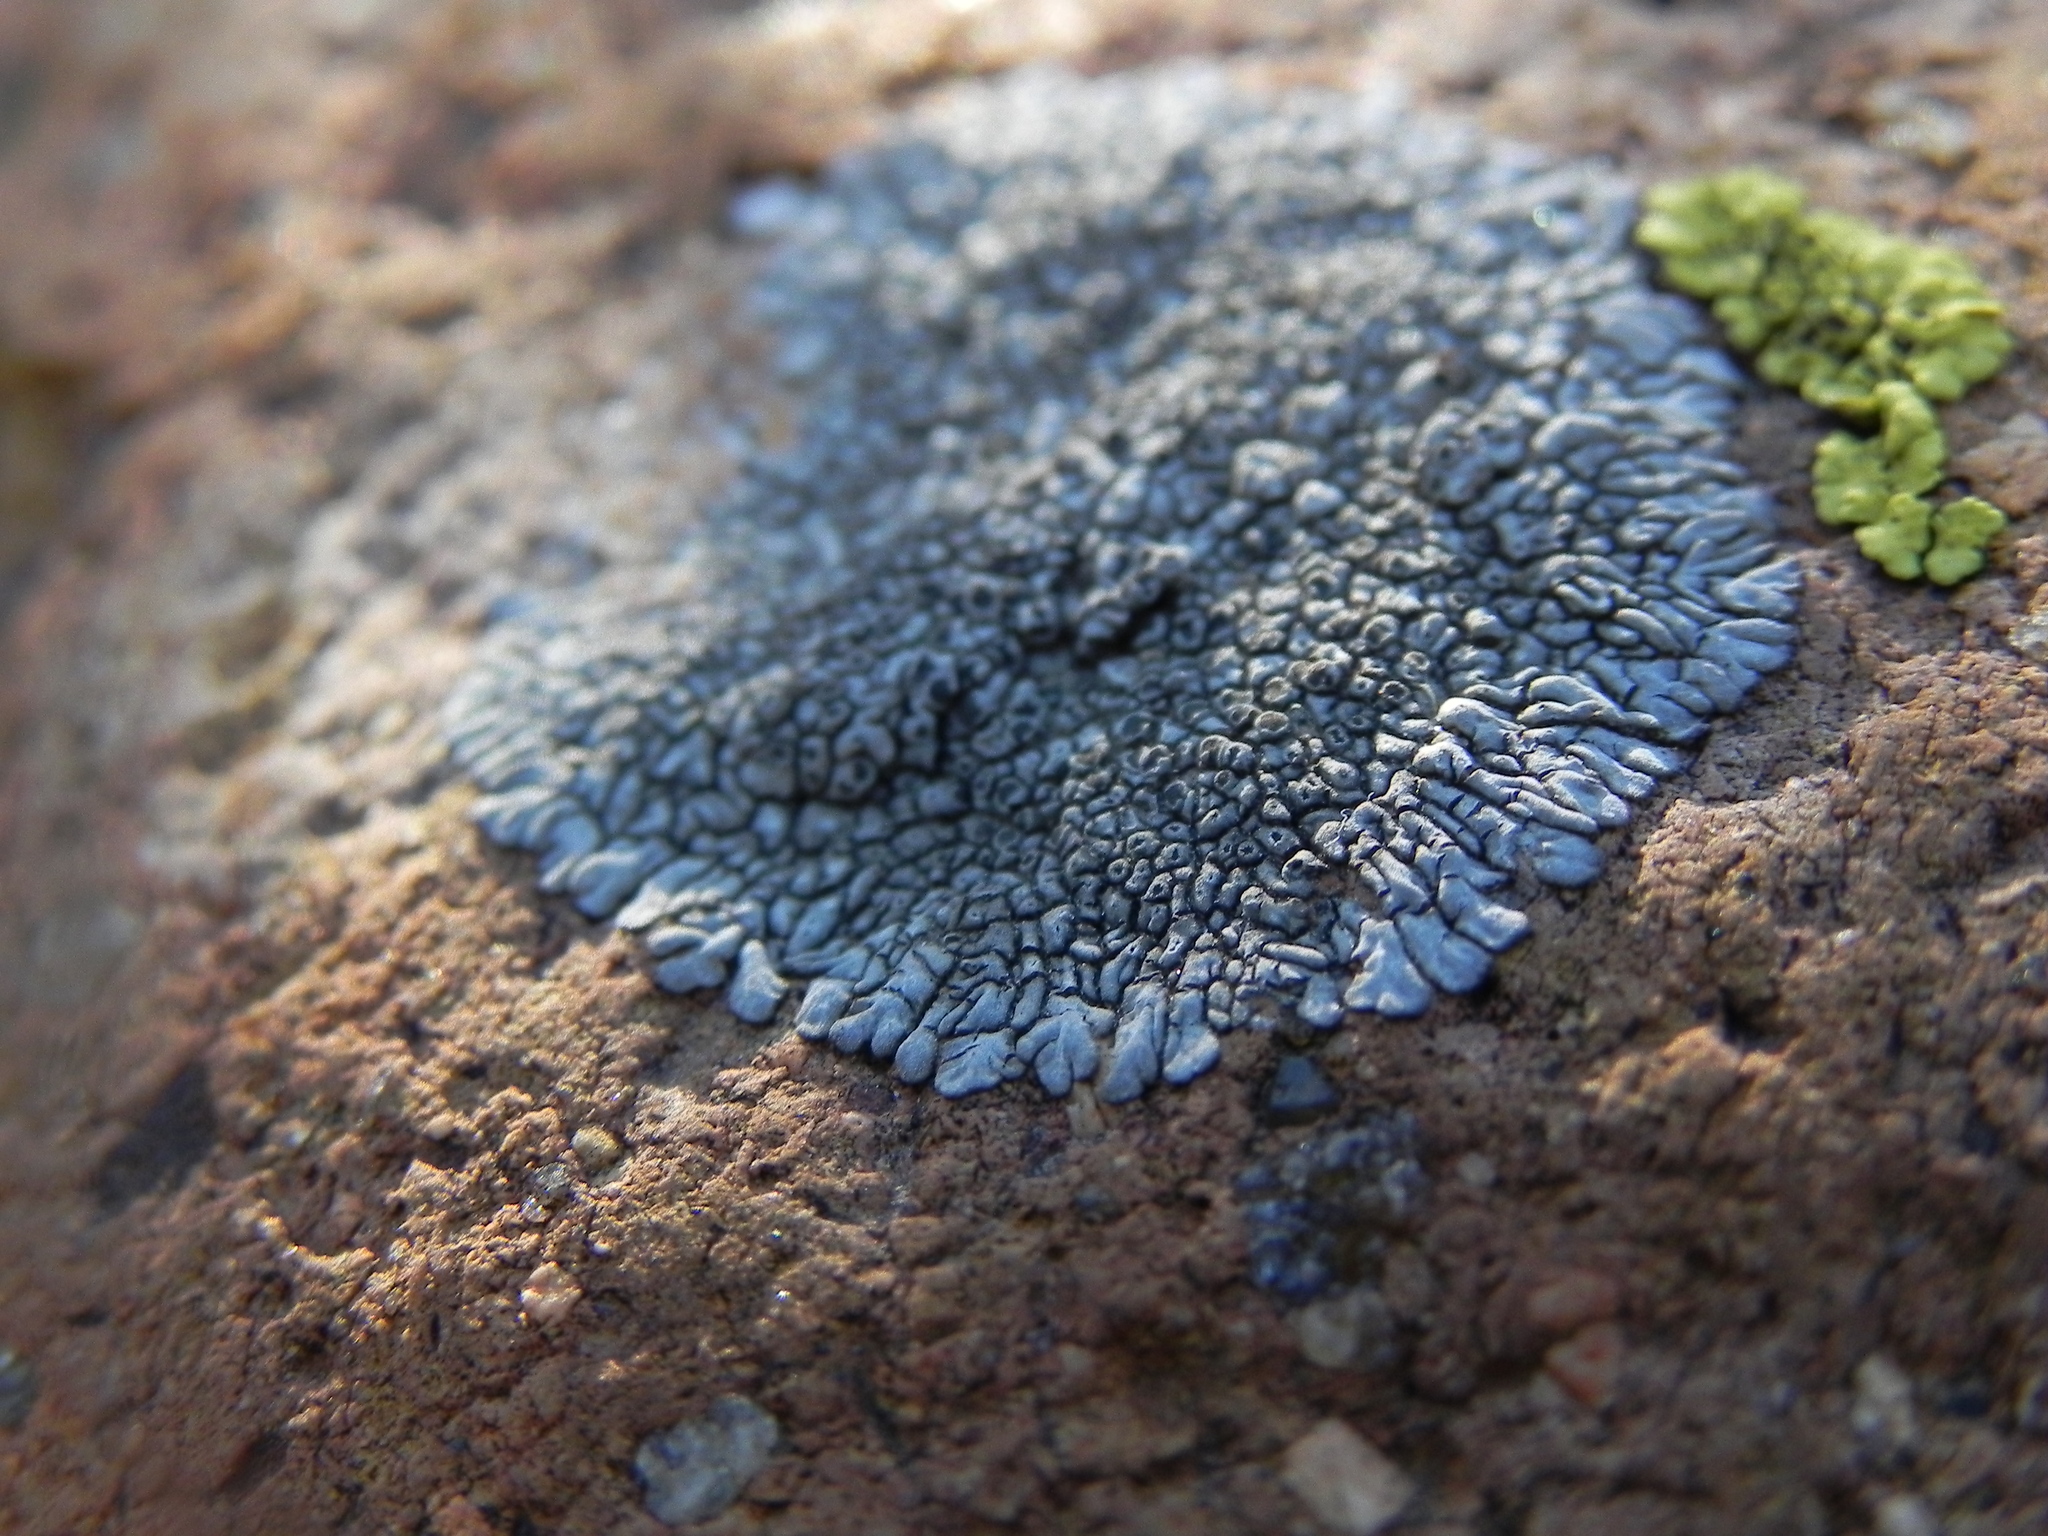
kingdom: Fungi
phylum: Ascomycota
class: Lecanoromycetes
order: Caliciales
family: Caliciaceae
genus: Dimelaena
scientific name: Dimelaena radiata
